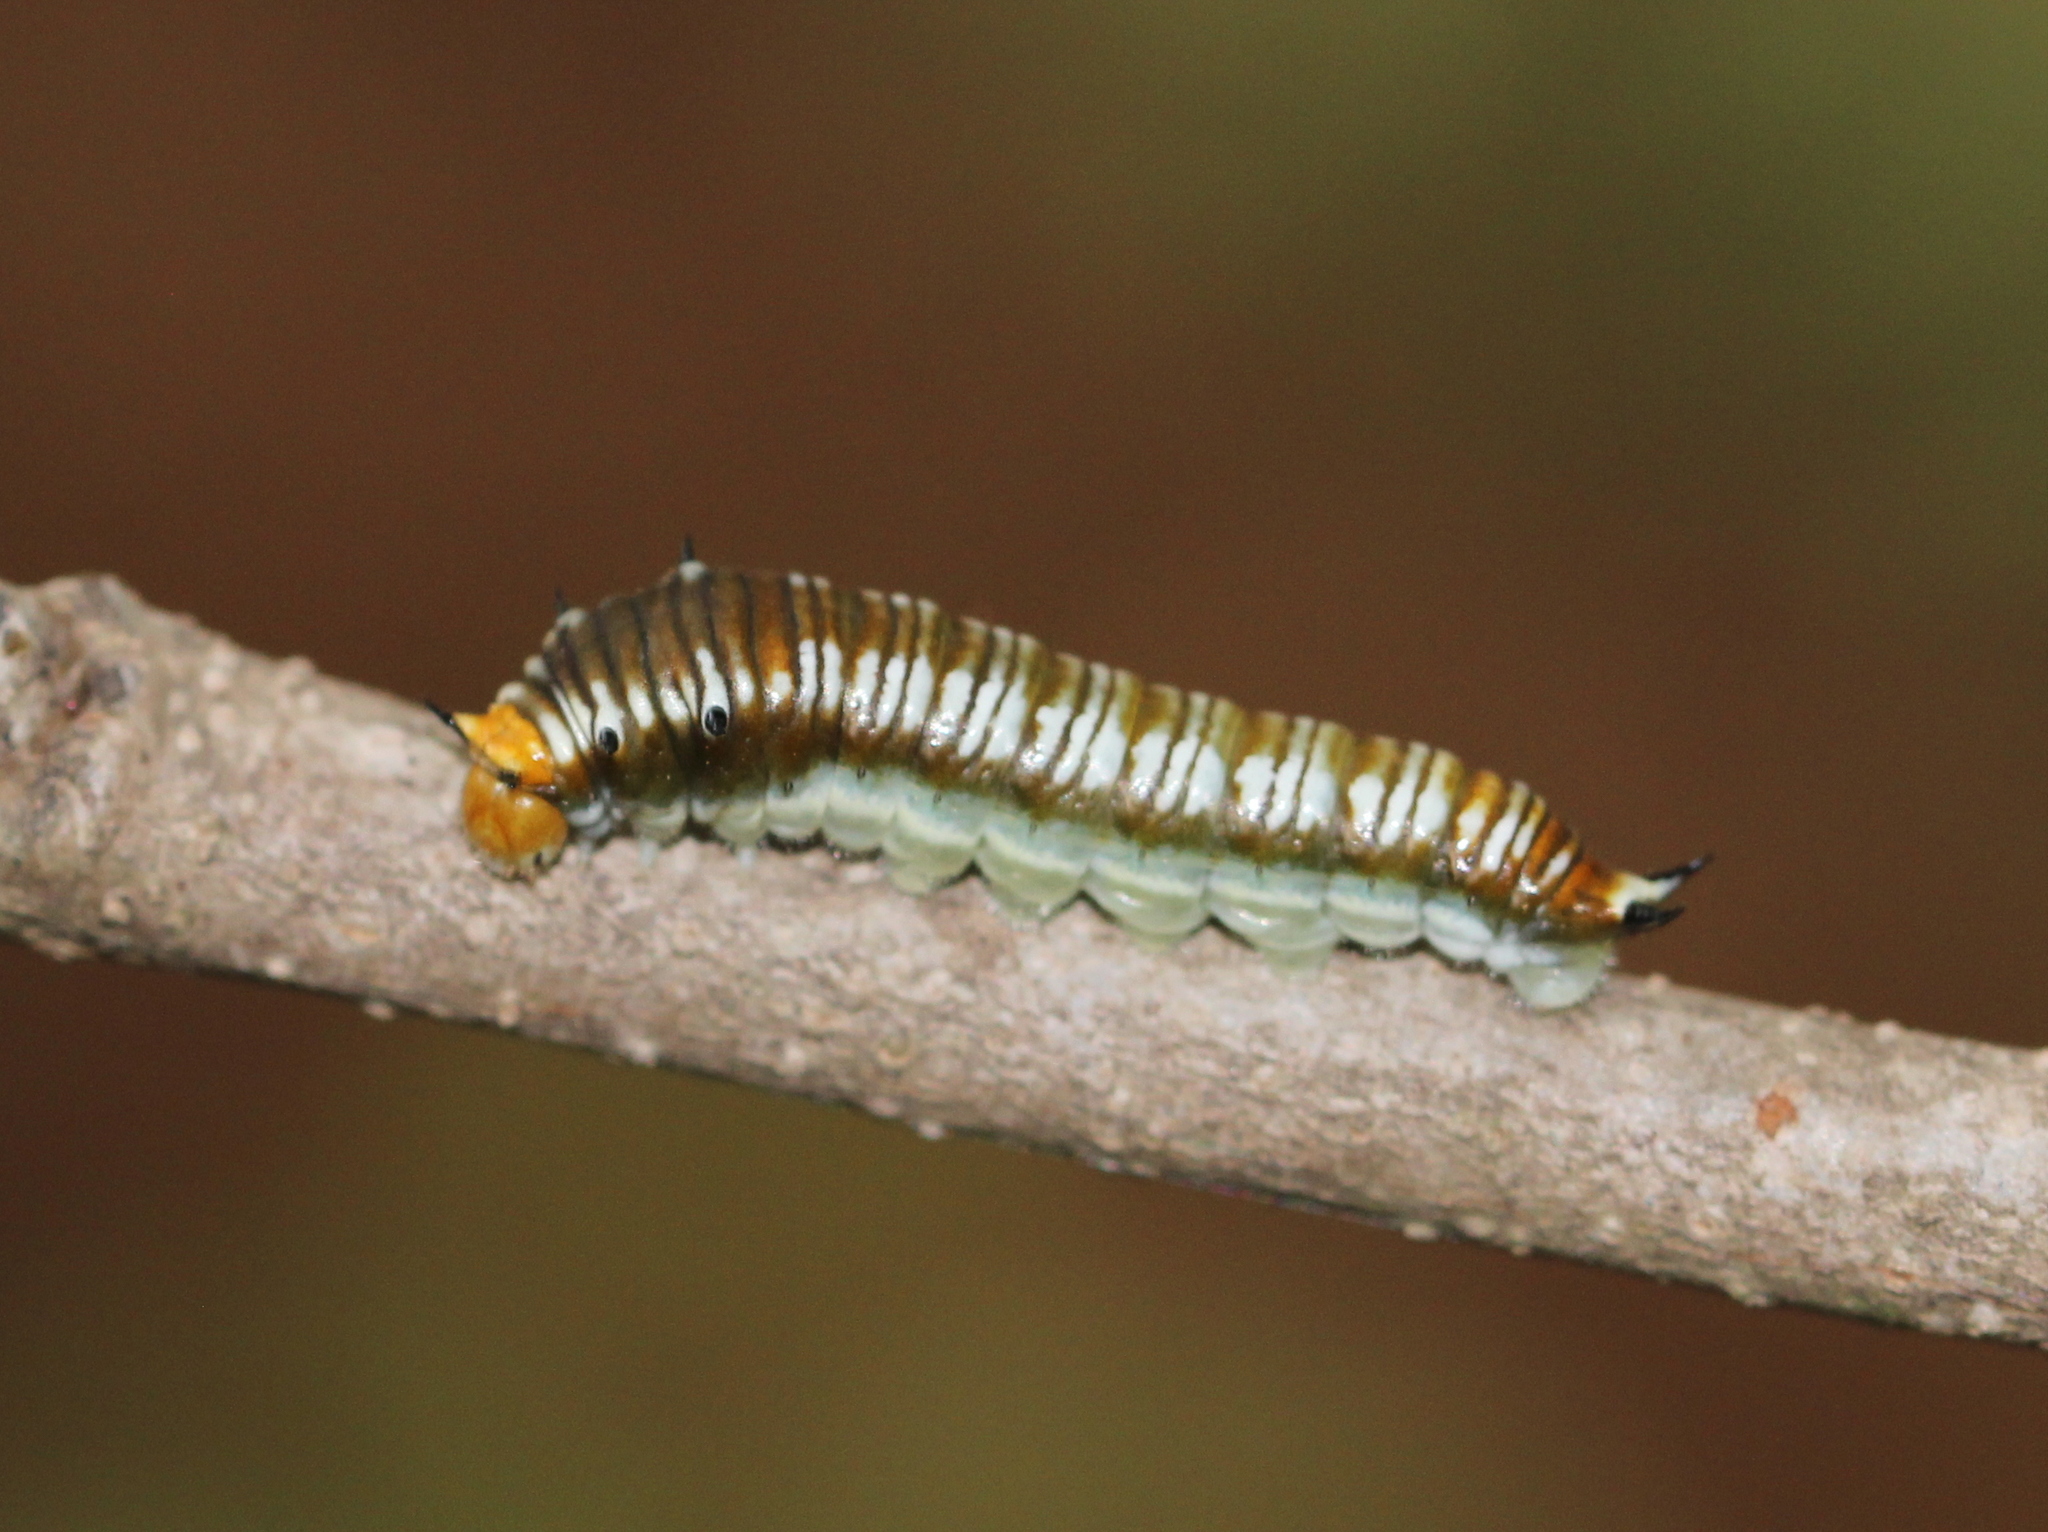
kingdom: Animalia
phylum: Arthropoda
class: Insecta
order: Lepidoptera
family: Papilionidae
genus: Graphium
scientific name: Graphium nomius
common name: Spot swordtail
